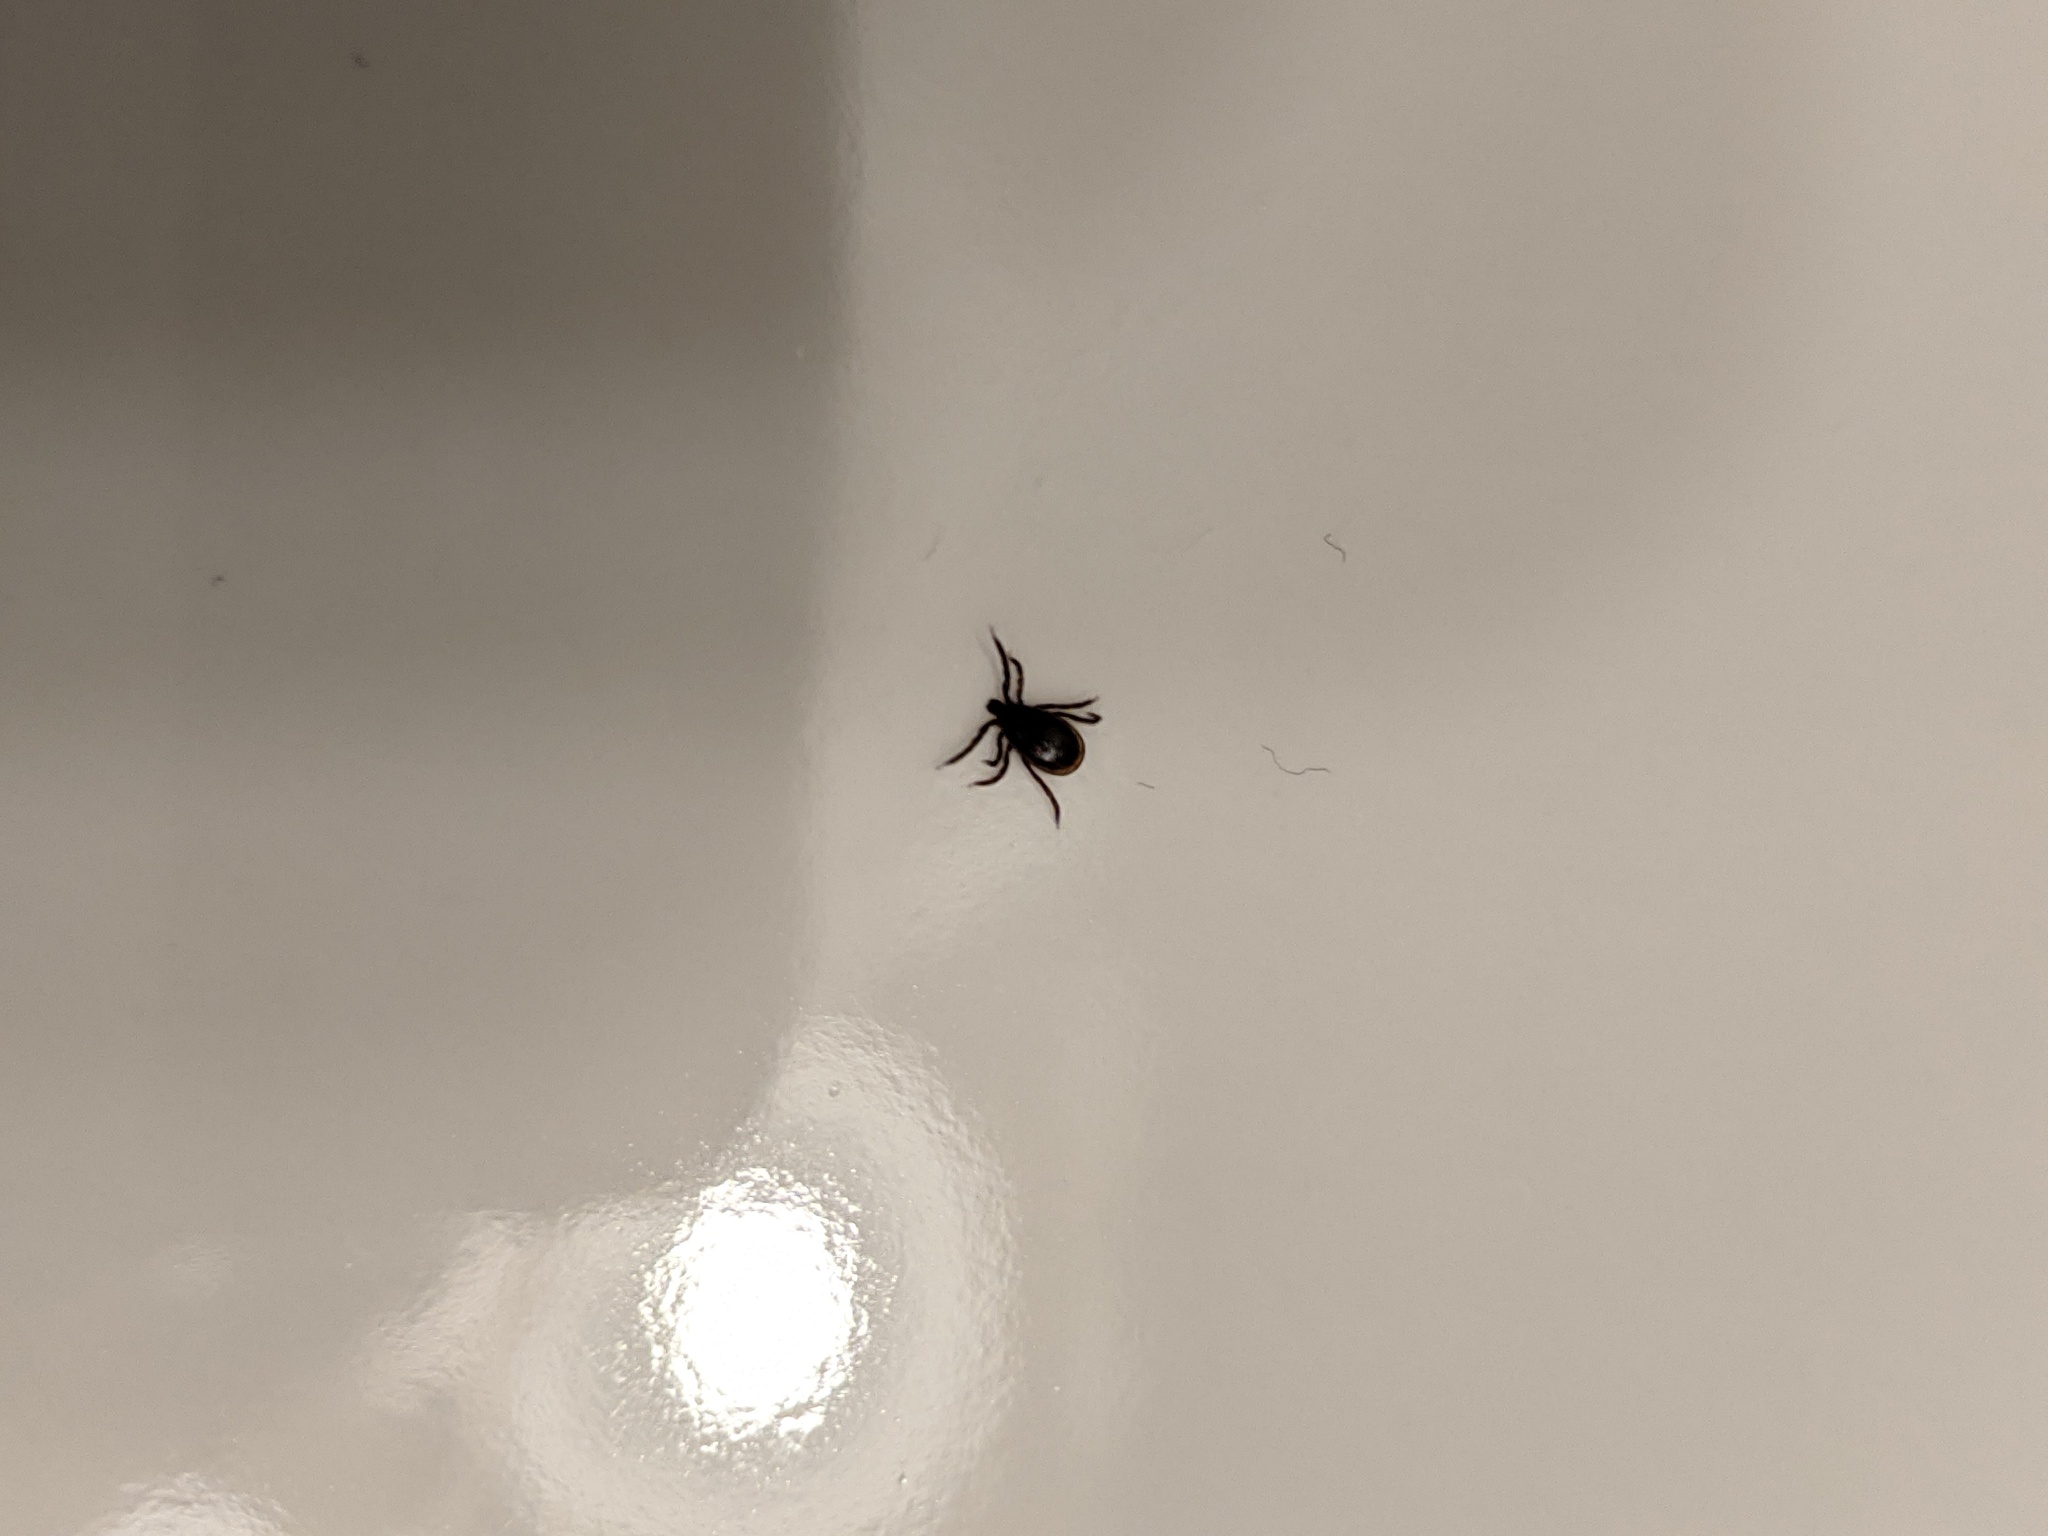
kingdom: Animalia
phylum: Arthropoda
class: Arachnida
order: Ixodida
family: Ixodidae
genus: Ixodes
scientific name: Ixodes scapularis
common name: Black legged tick
